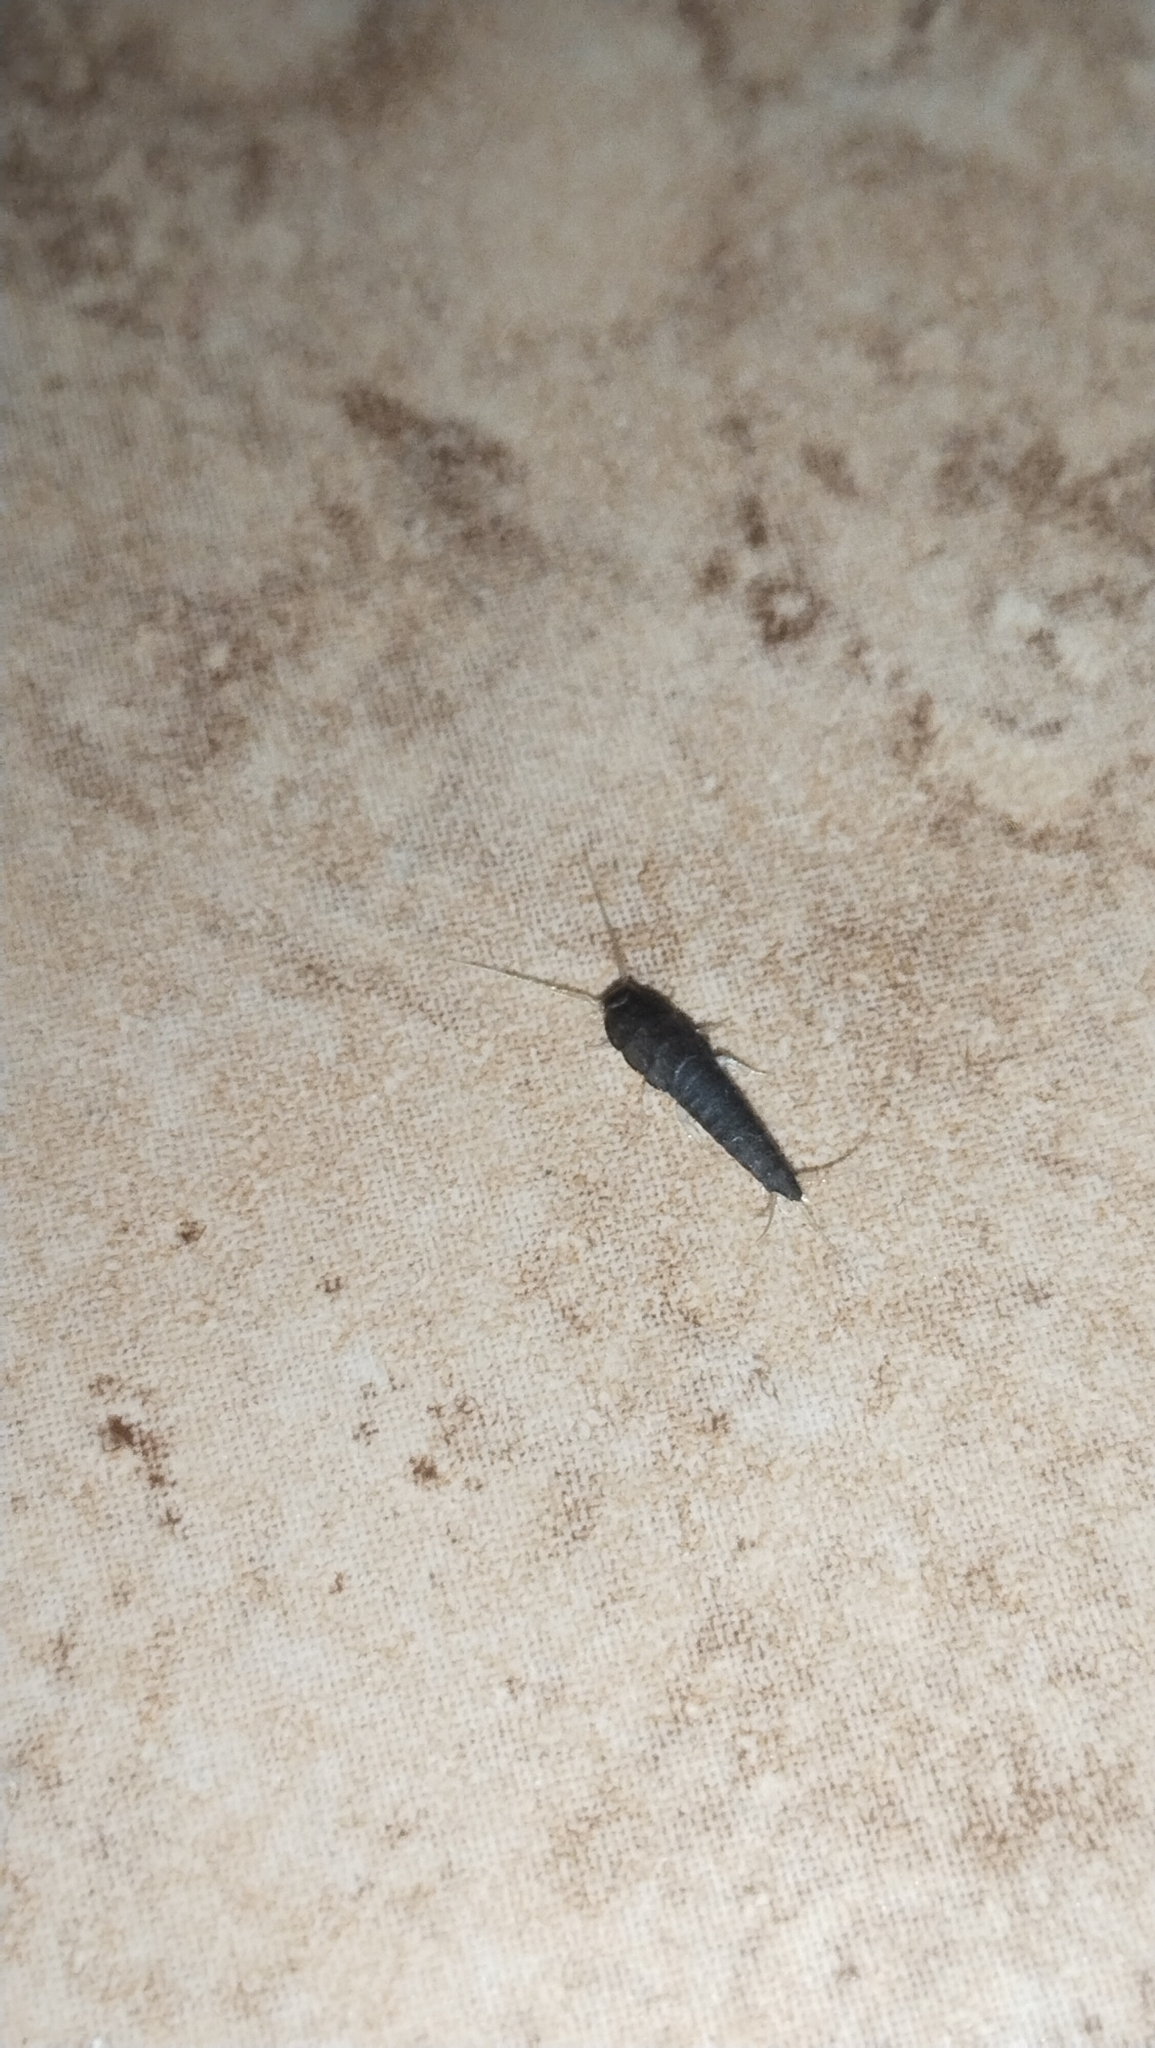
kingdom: Animalia
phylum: Arthropoda
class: Insecta
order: Zygentoma
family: Lepismatidae
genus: Lepisma
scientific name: Lepisma saccharinum
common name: Silverfish
